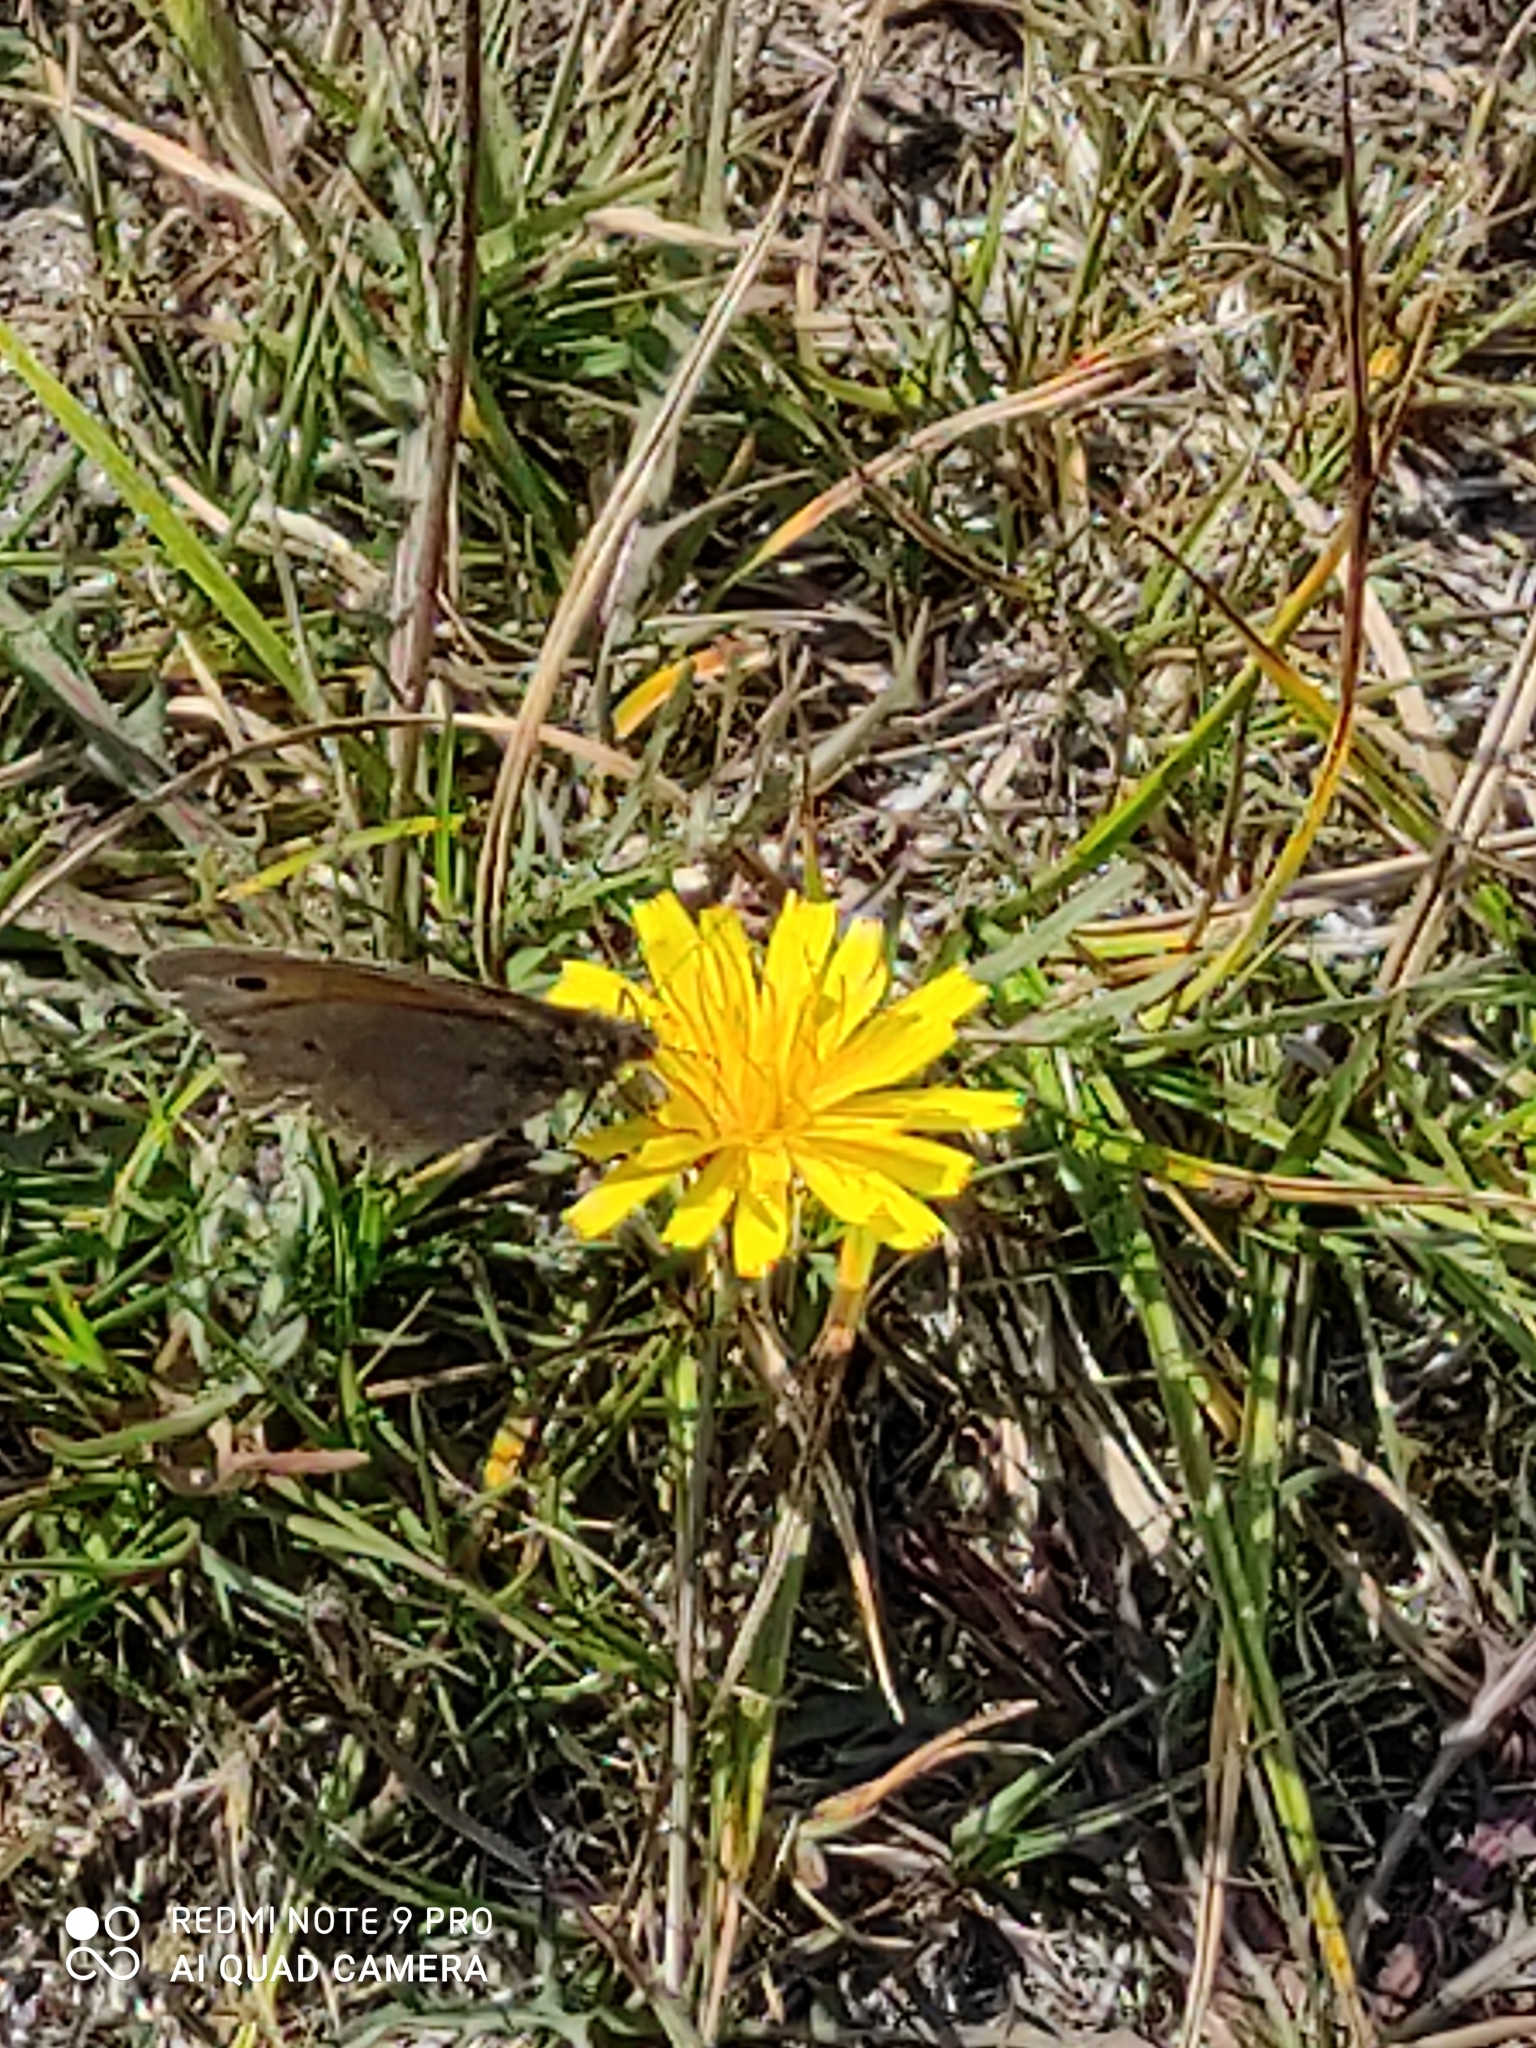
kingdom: Animalia
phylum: Arthropoda
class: Insecta
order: Lepidoptera
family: Nymphalidae
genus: Maniola
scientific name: Maniola jurtina
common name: Meadow brown
